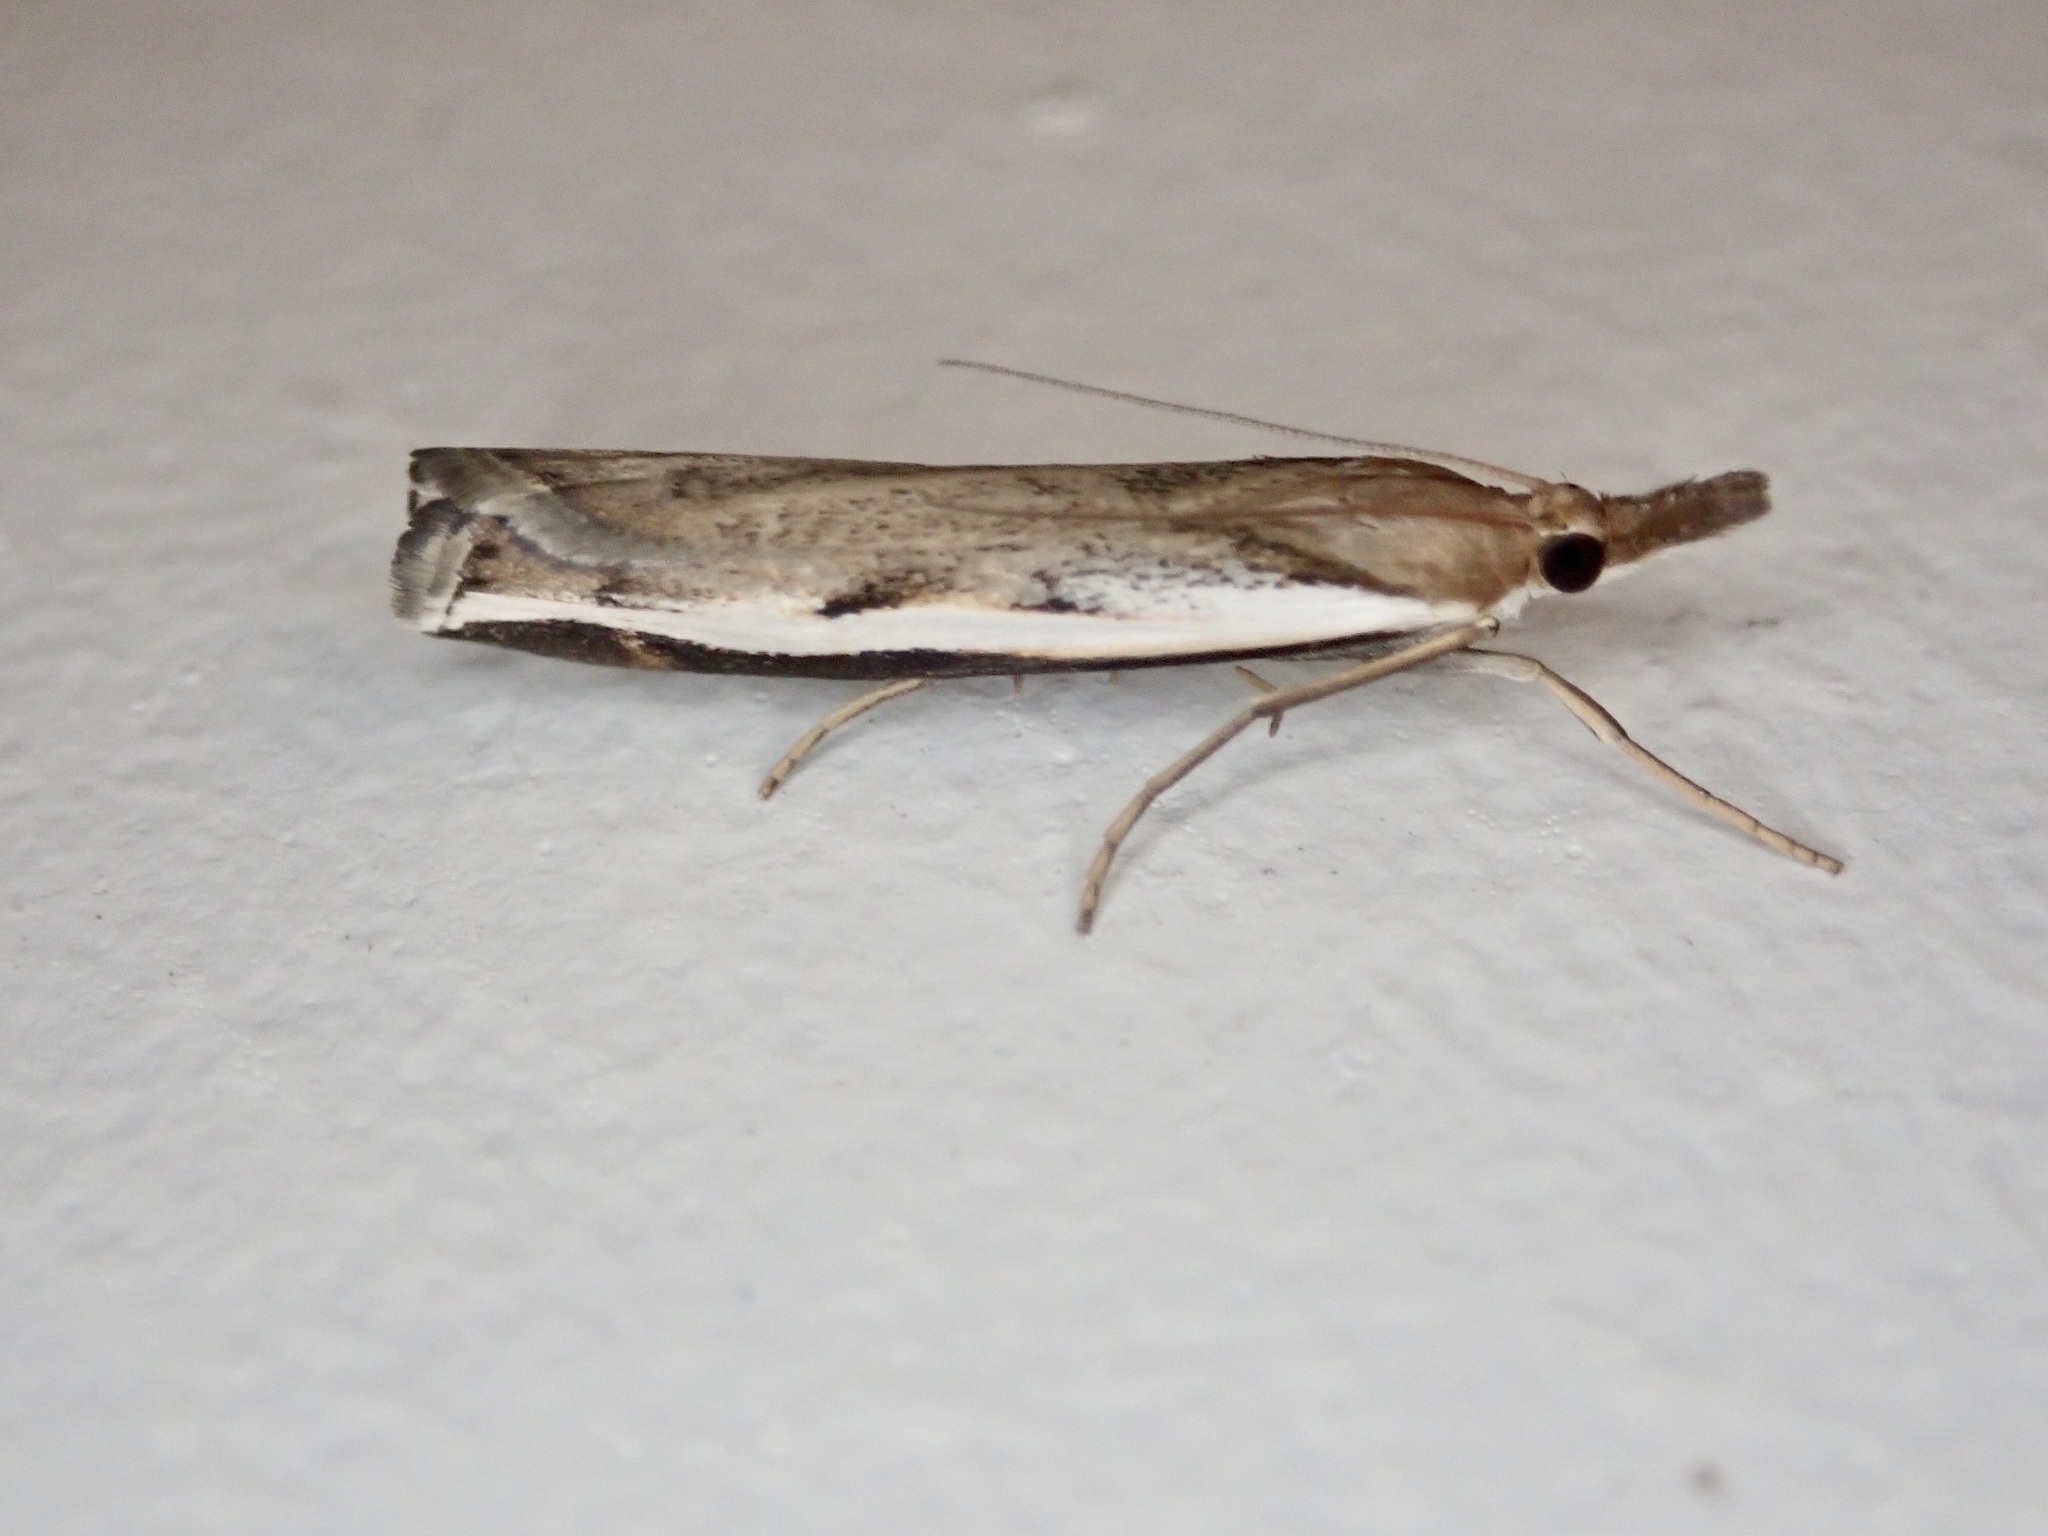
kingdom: Animalia
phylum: Arthropoda
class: Insecta
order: Lepidoptera
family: Crambidae
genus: Orocrambus
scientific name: Orocrambus flexuosellus
